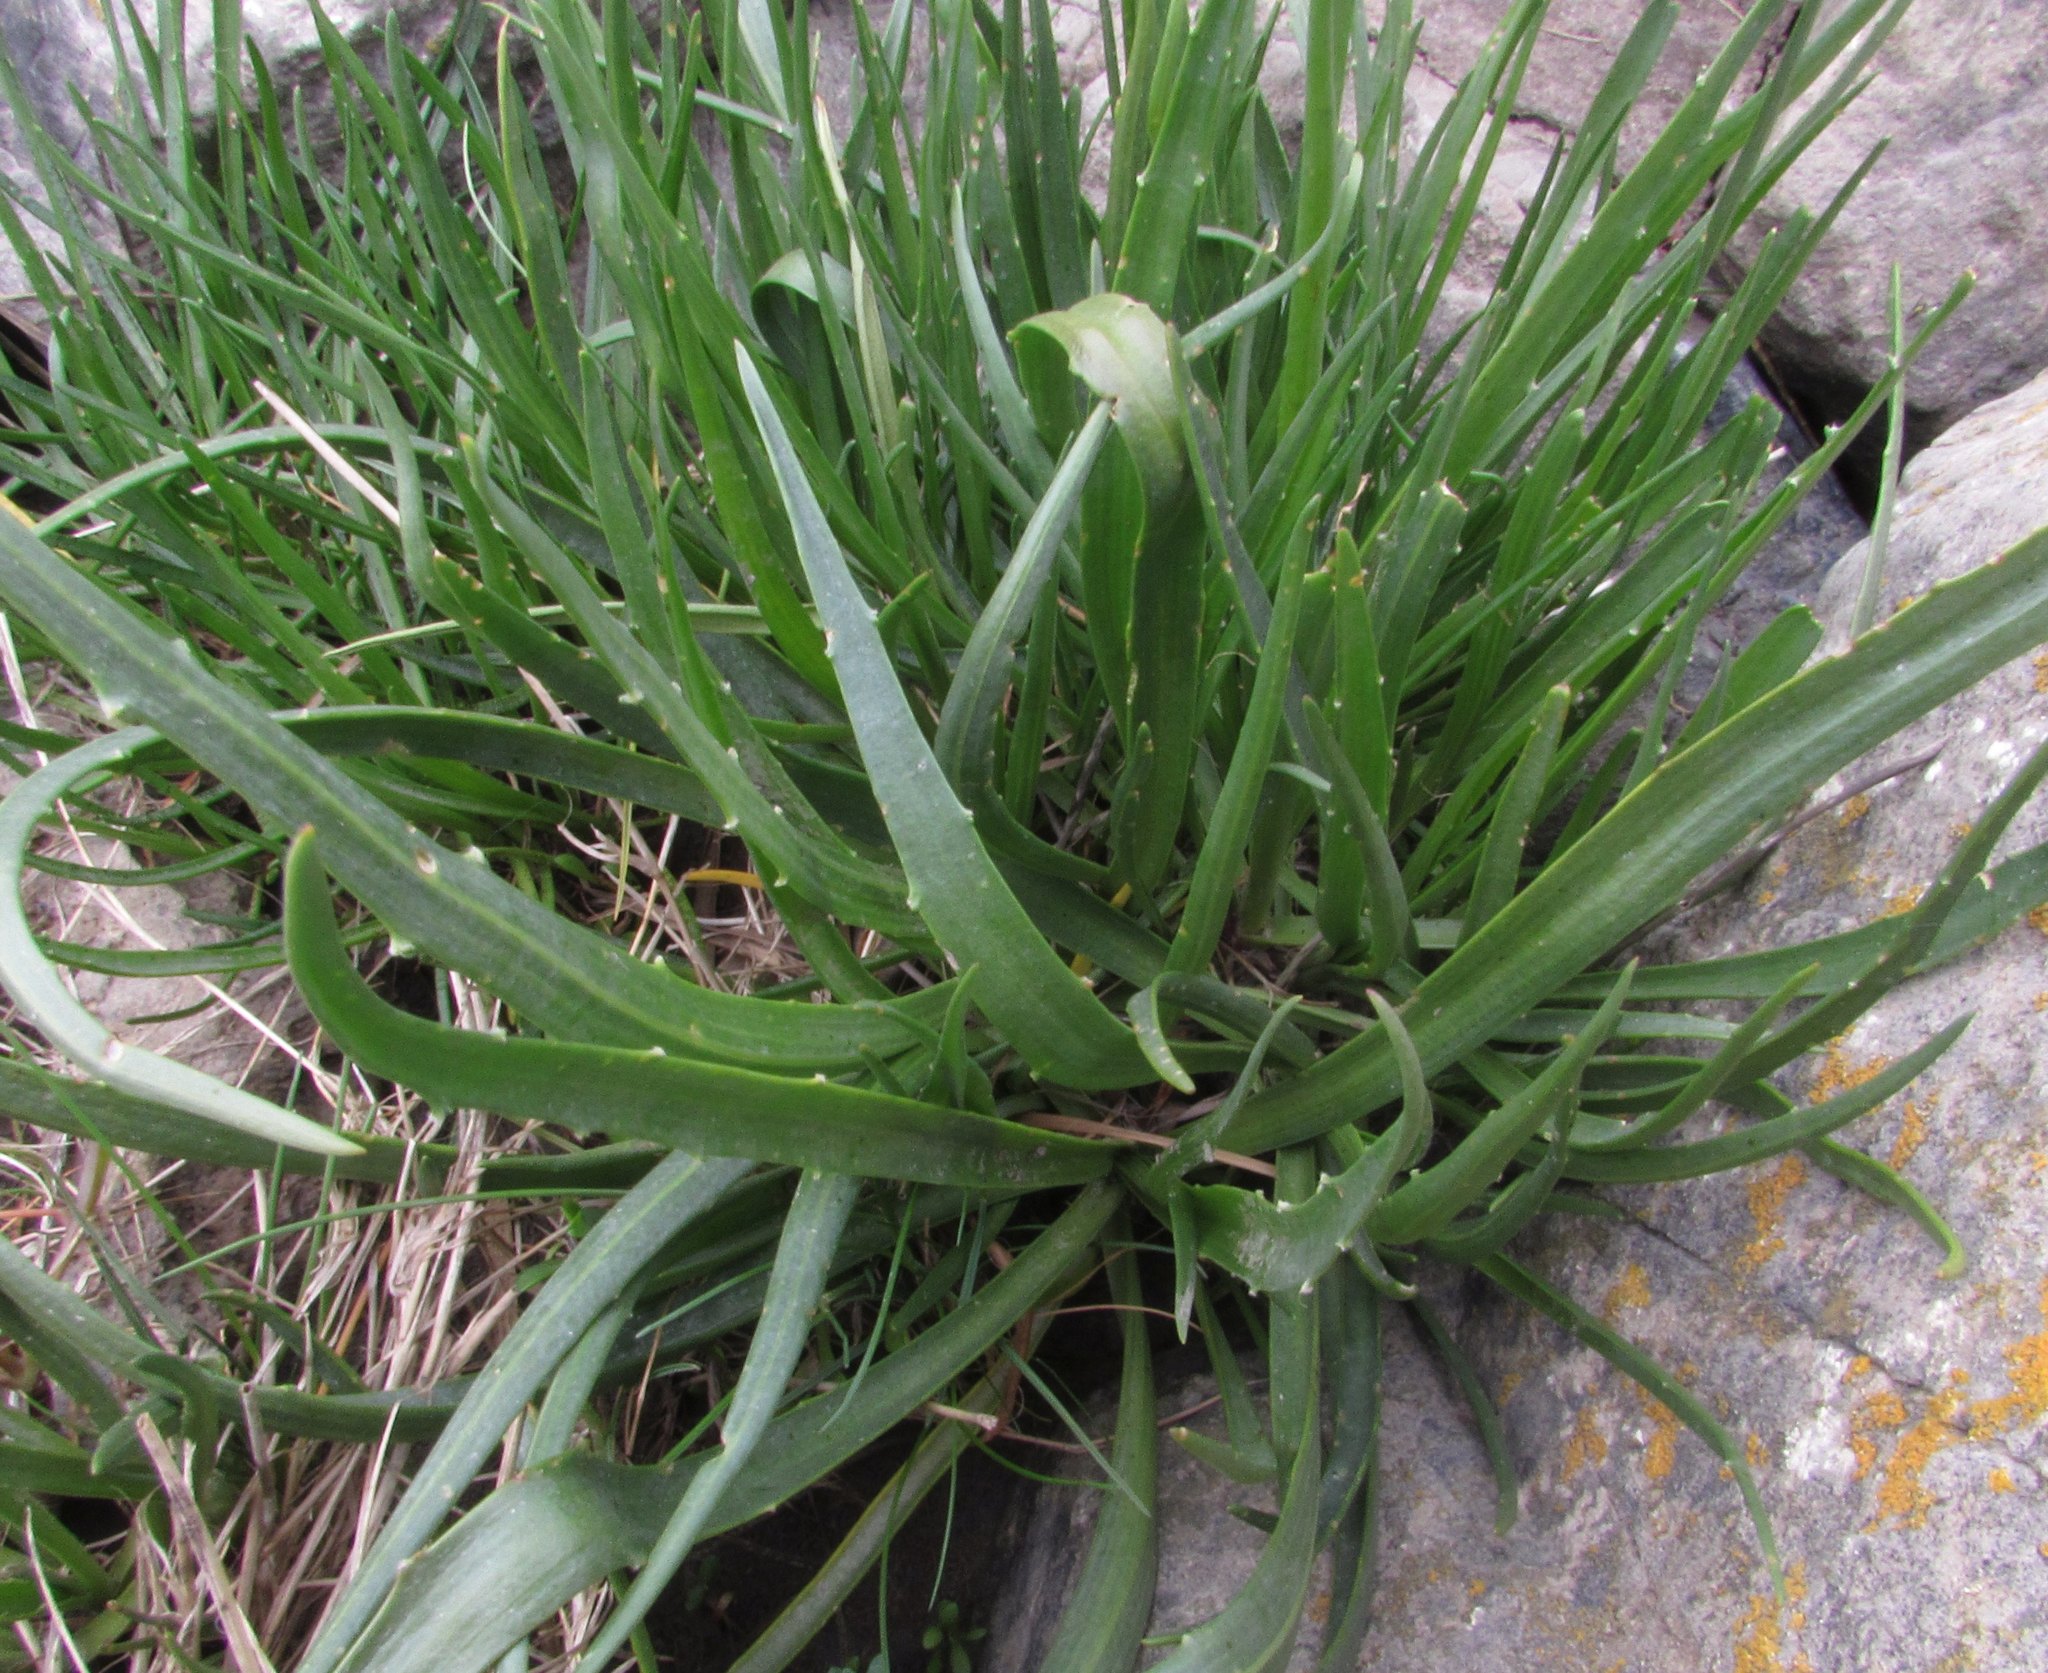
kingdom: Plantae
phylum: Tracheophyta
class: Magnoliopsida
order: Lamiales
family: Plantaginaceae
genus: Plantago
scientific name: Plantago maritima
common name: Sea plantain
